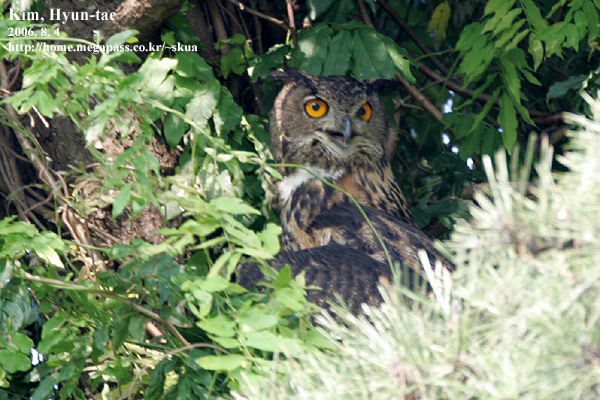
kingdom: Animalia
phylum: Chordata
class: Aves
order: Strigiformes
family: Strigidae
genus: Bubo
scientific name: Bubo bubo
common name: Eurasian eagle-owl
